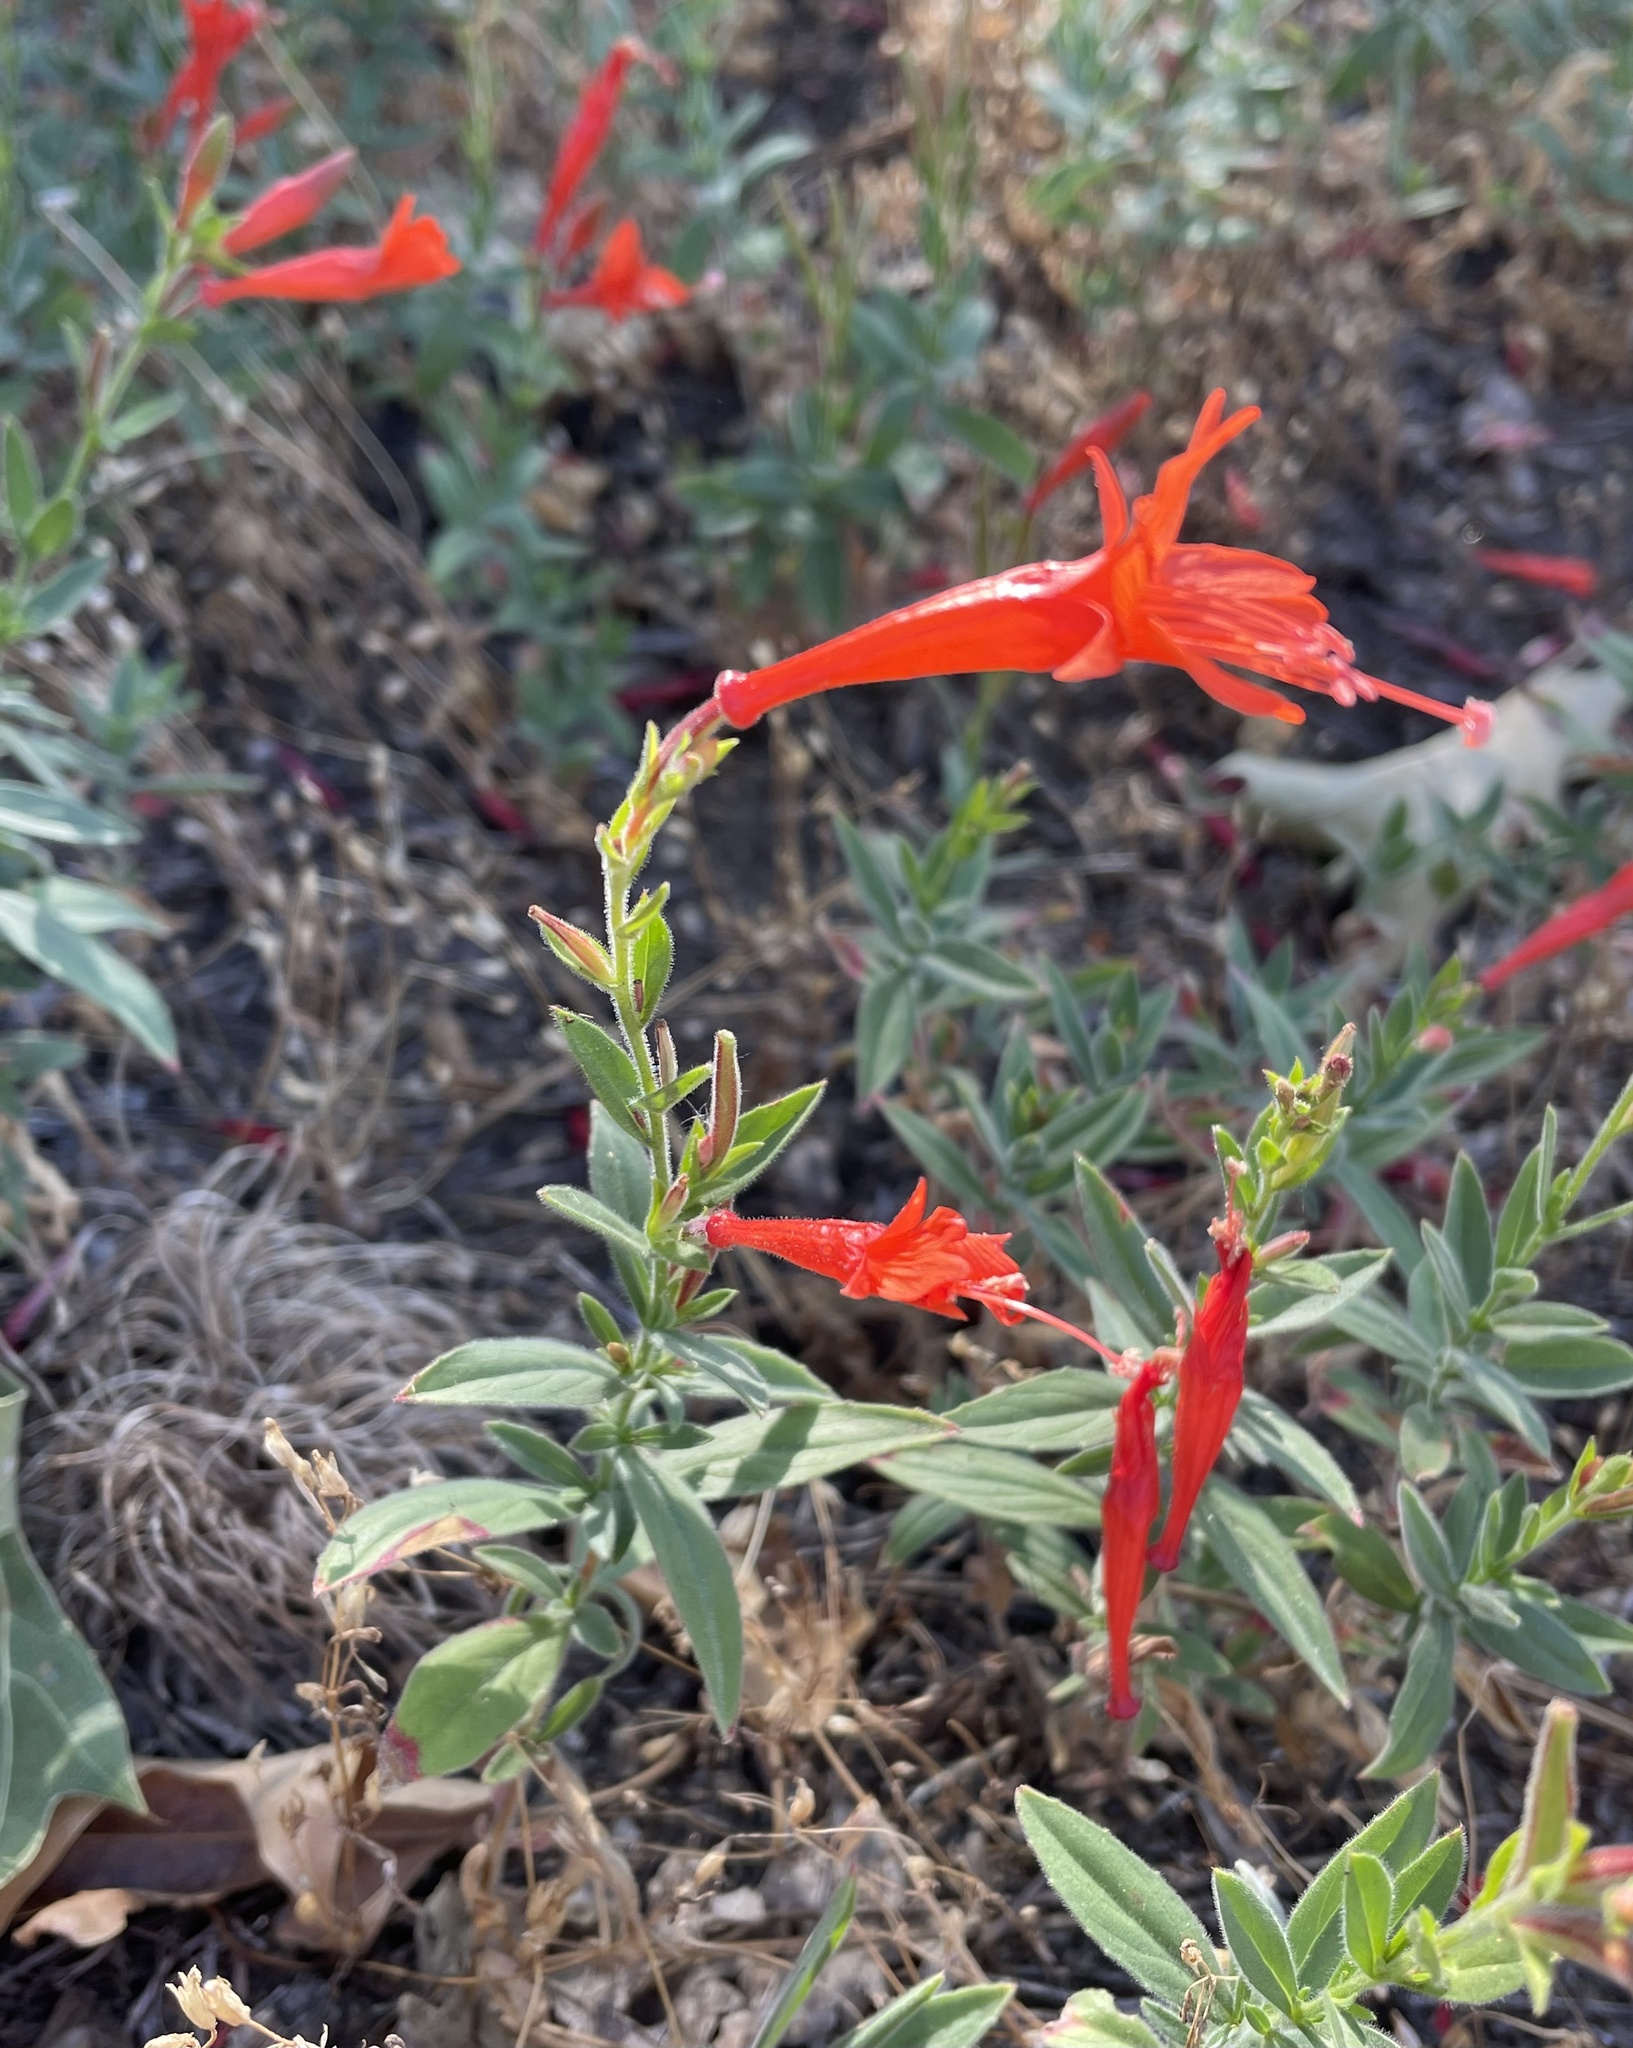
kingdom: Plantae
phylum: Tracheophyta
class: Magnoliopsida
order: Myrtales
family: Onagraceae
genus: Epilobium
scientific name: Epilobium canum
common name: California-fuchsia
